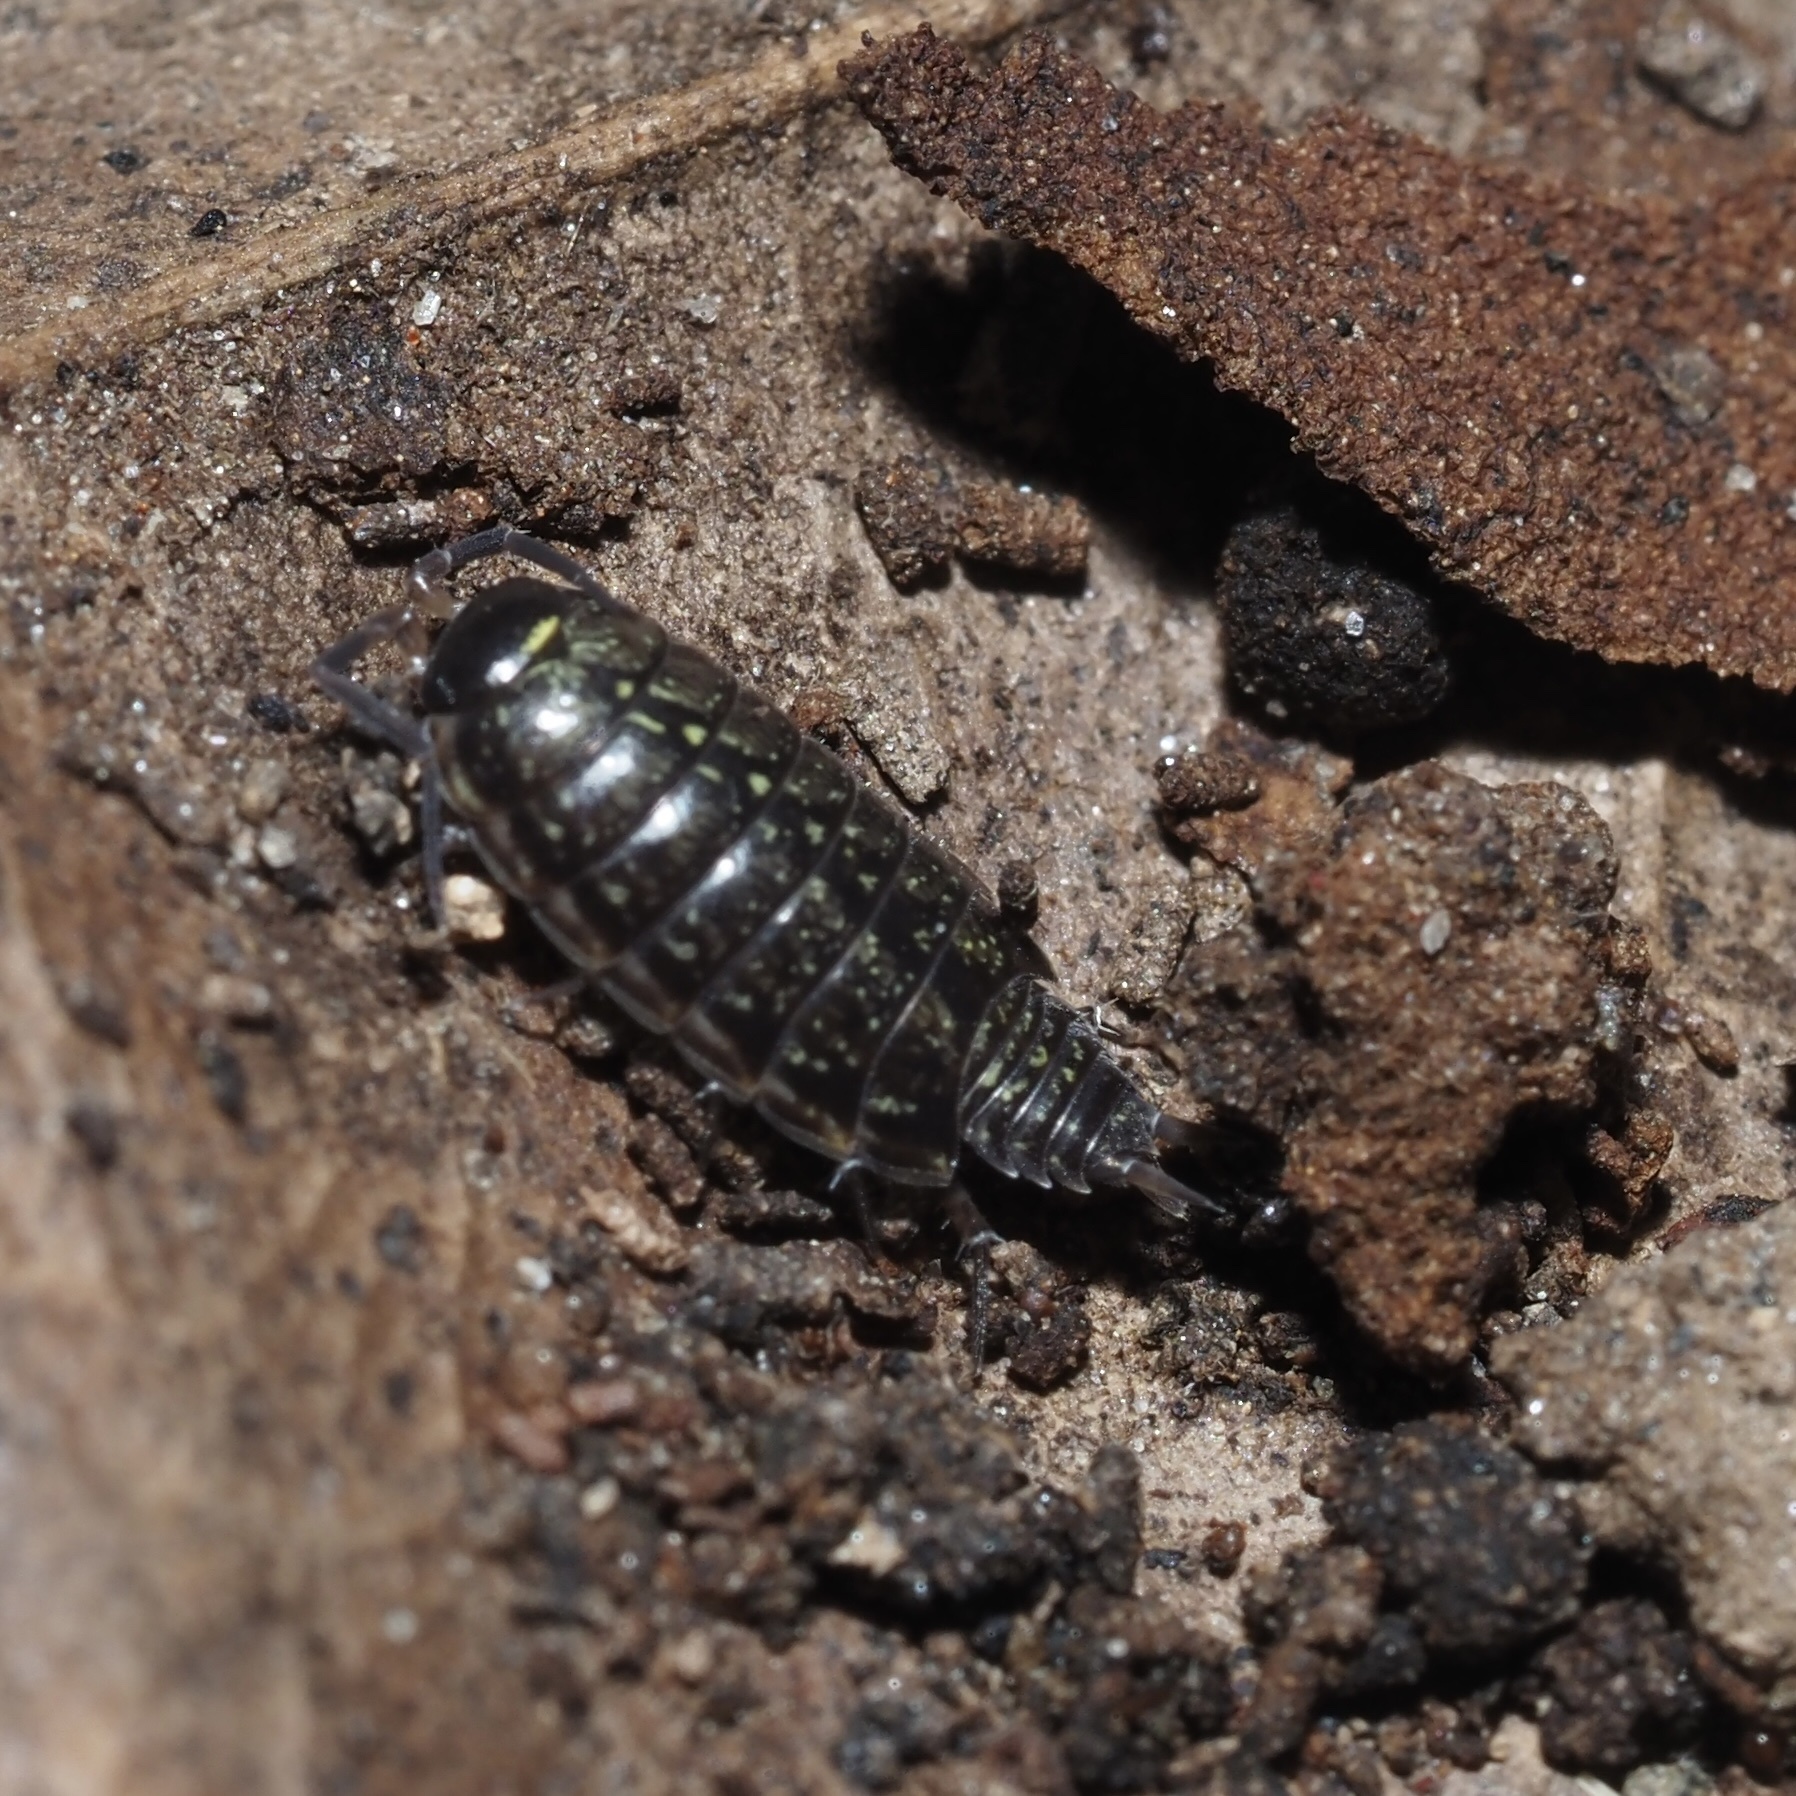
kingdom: Animalia
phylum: Arthropoda
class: Malacostraca
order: Isopoda
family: Philosciidae
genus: Philoscia
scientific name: Philoscia muscorum
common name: Common striped woodlouse
